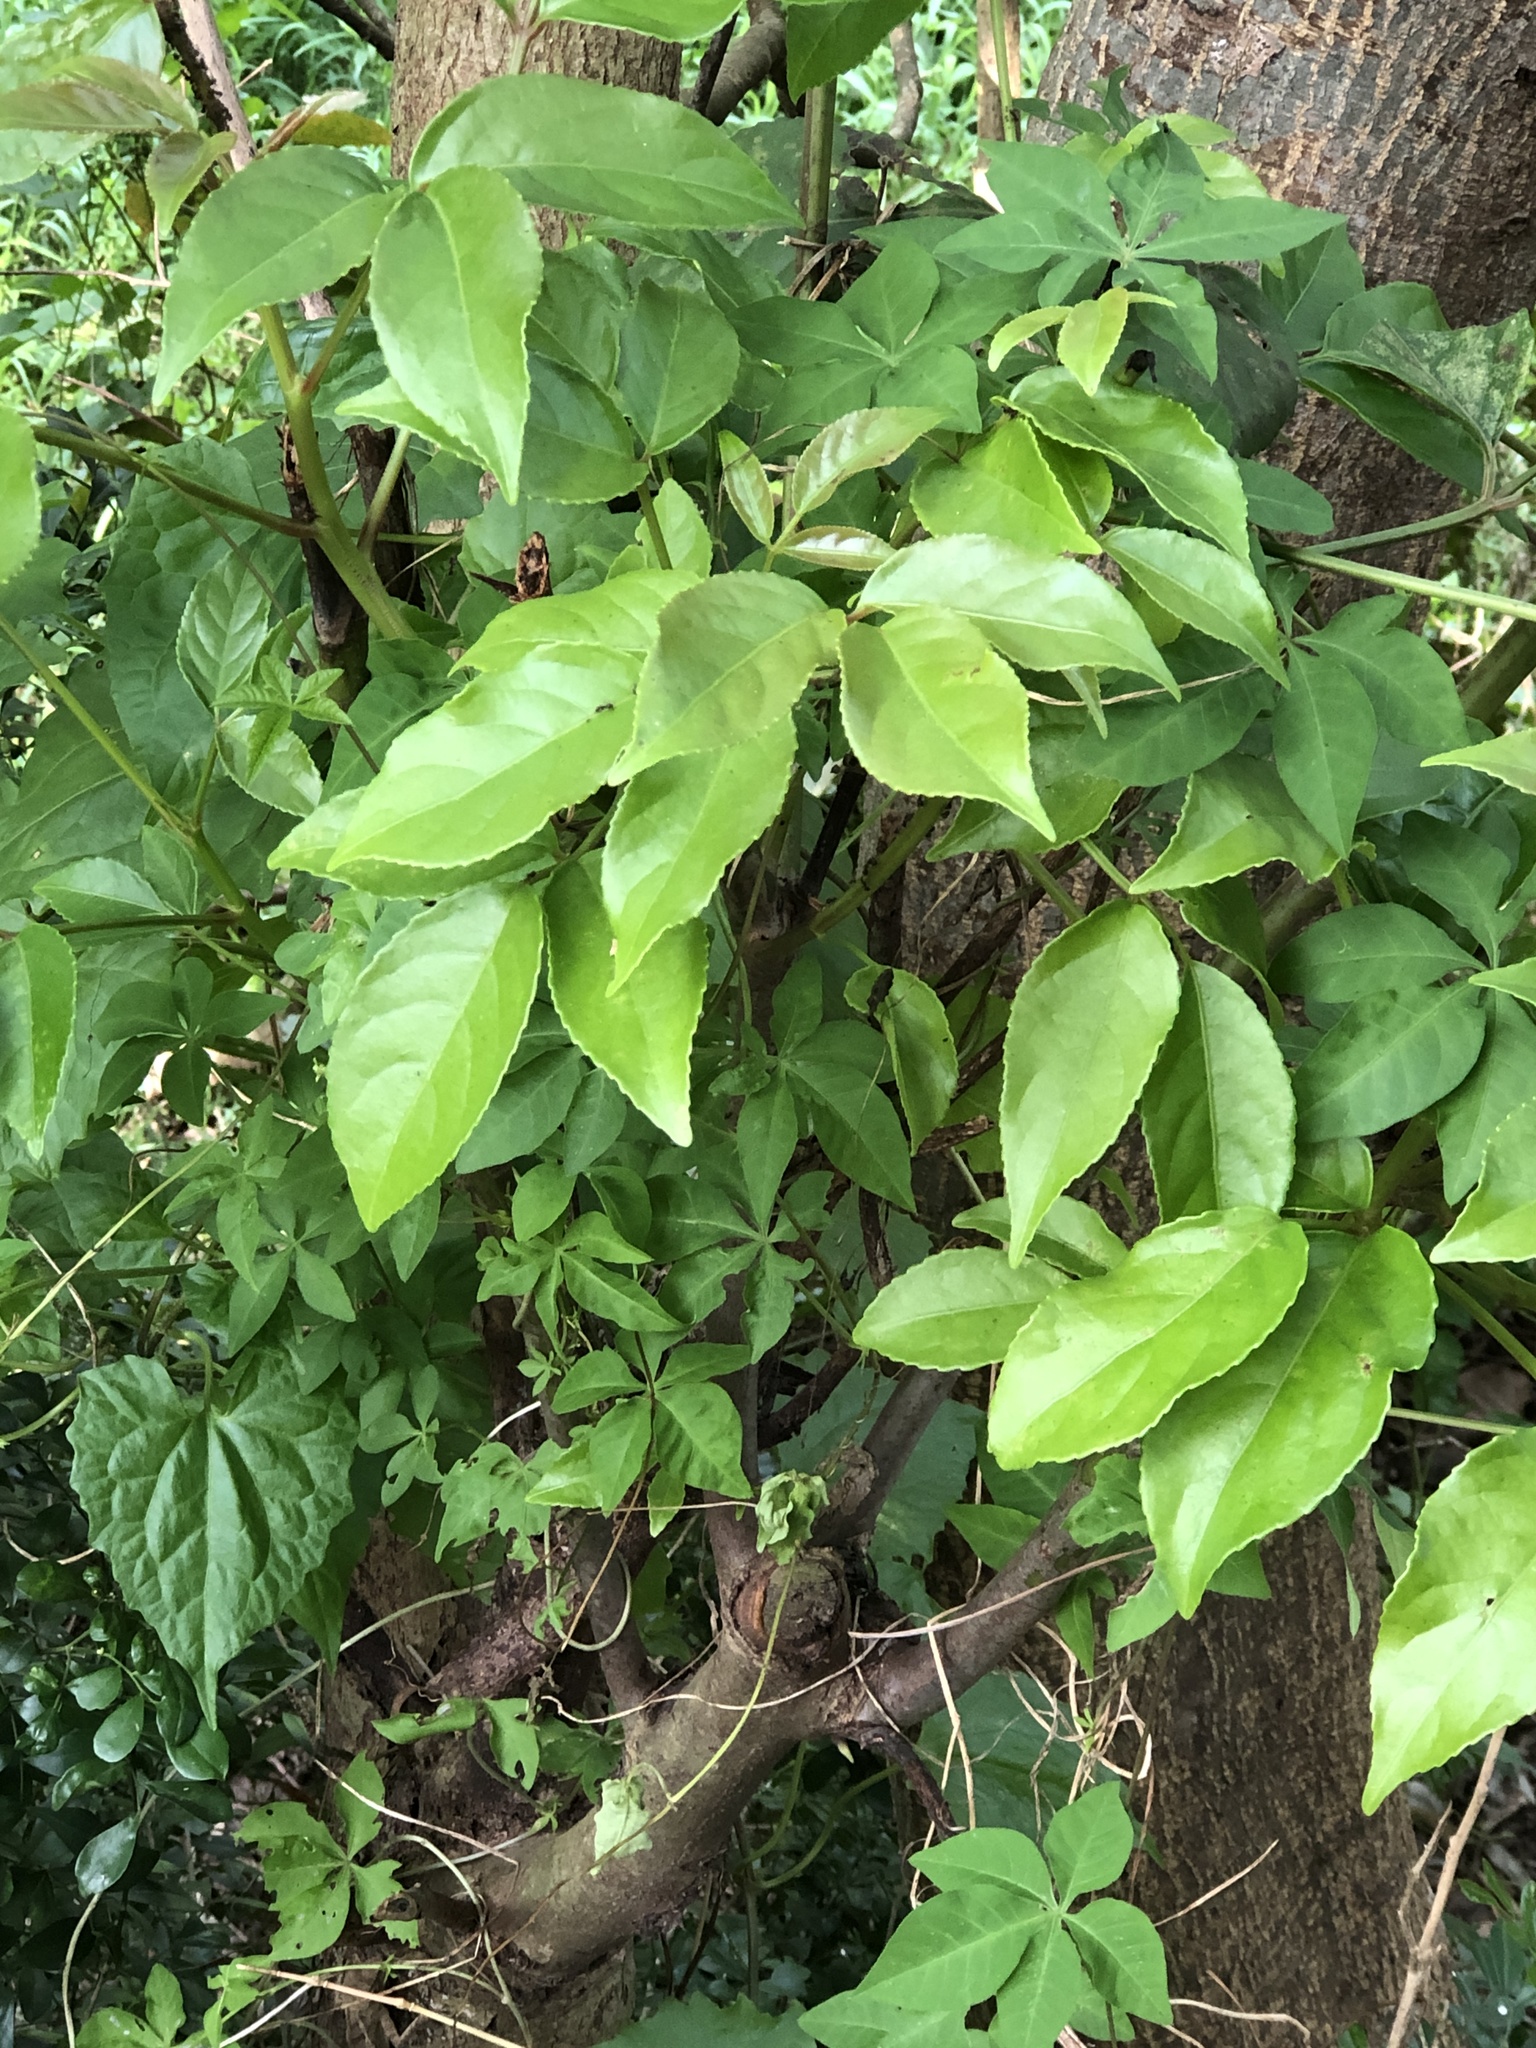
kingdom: Plantae
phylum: Tracheophyta
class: Magnoliopsida
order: Malpighiales
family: Phyllanthaceae
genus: Bischofia
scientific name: Bischofia javanica
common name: Javanese bishopwood
